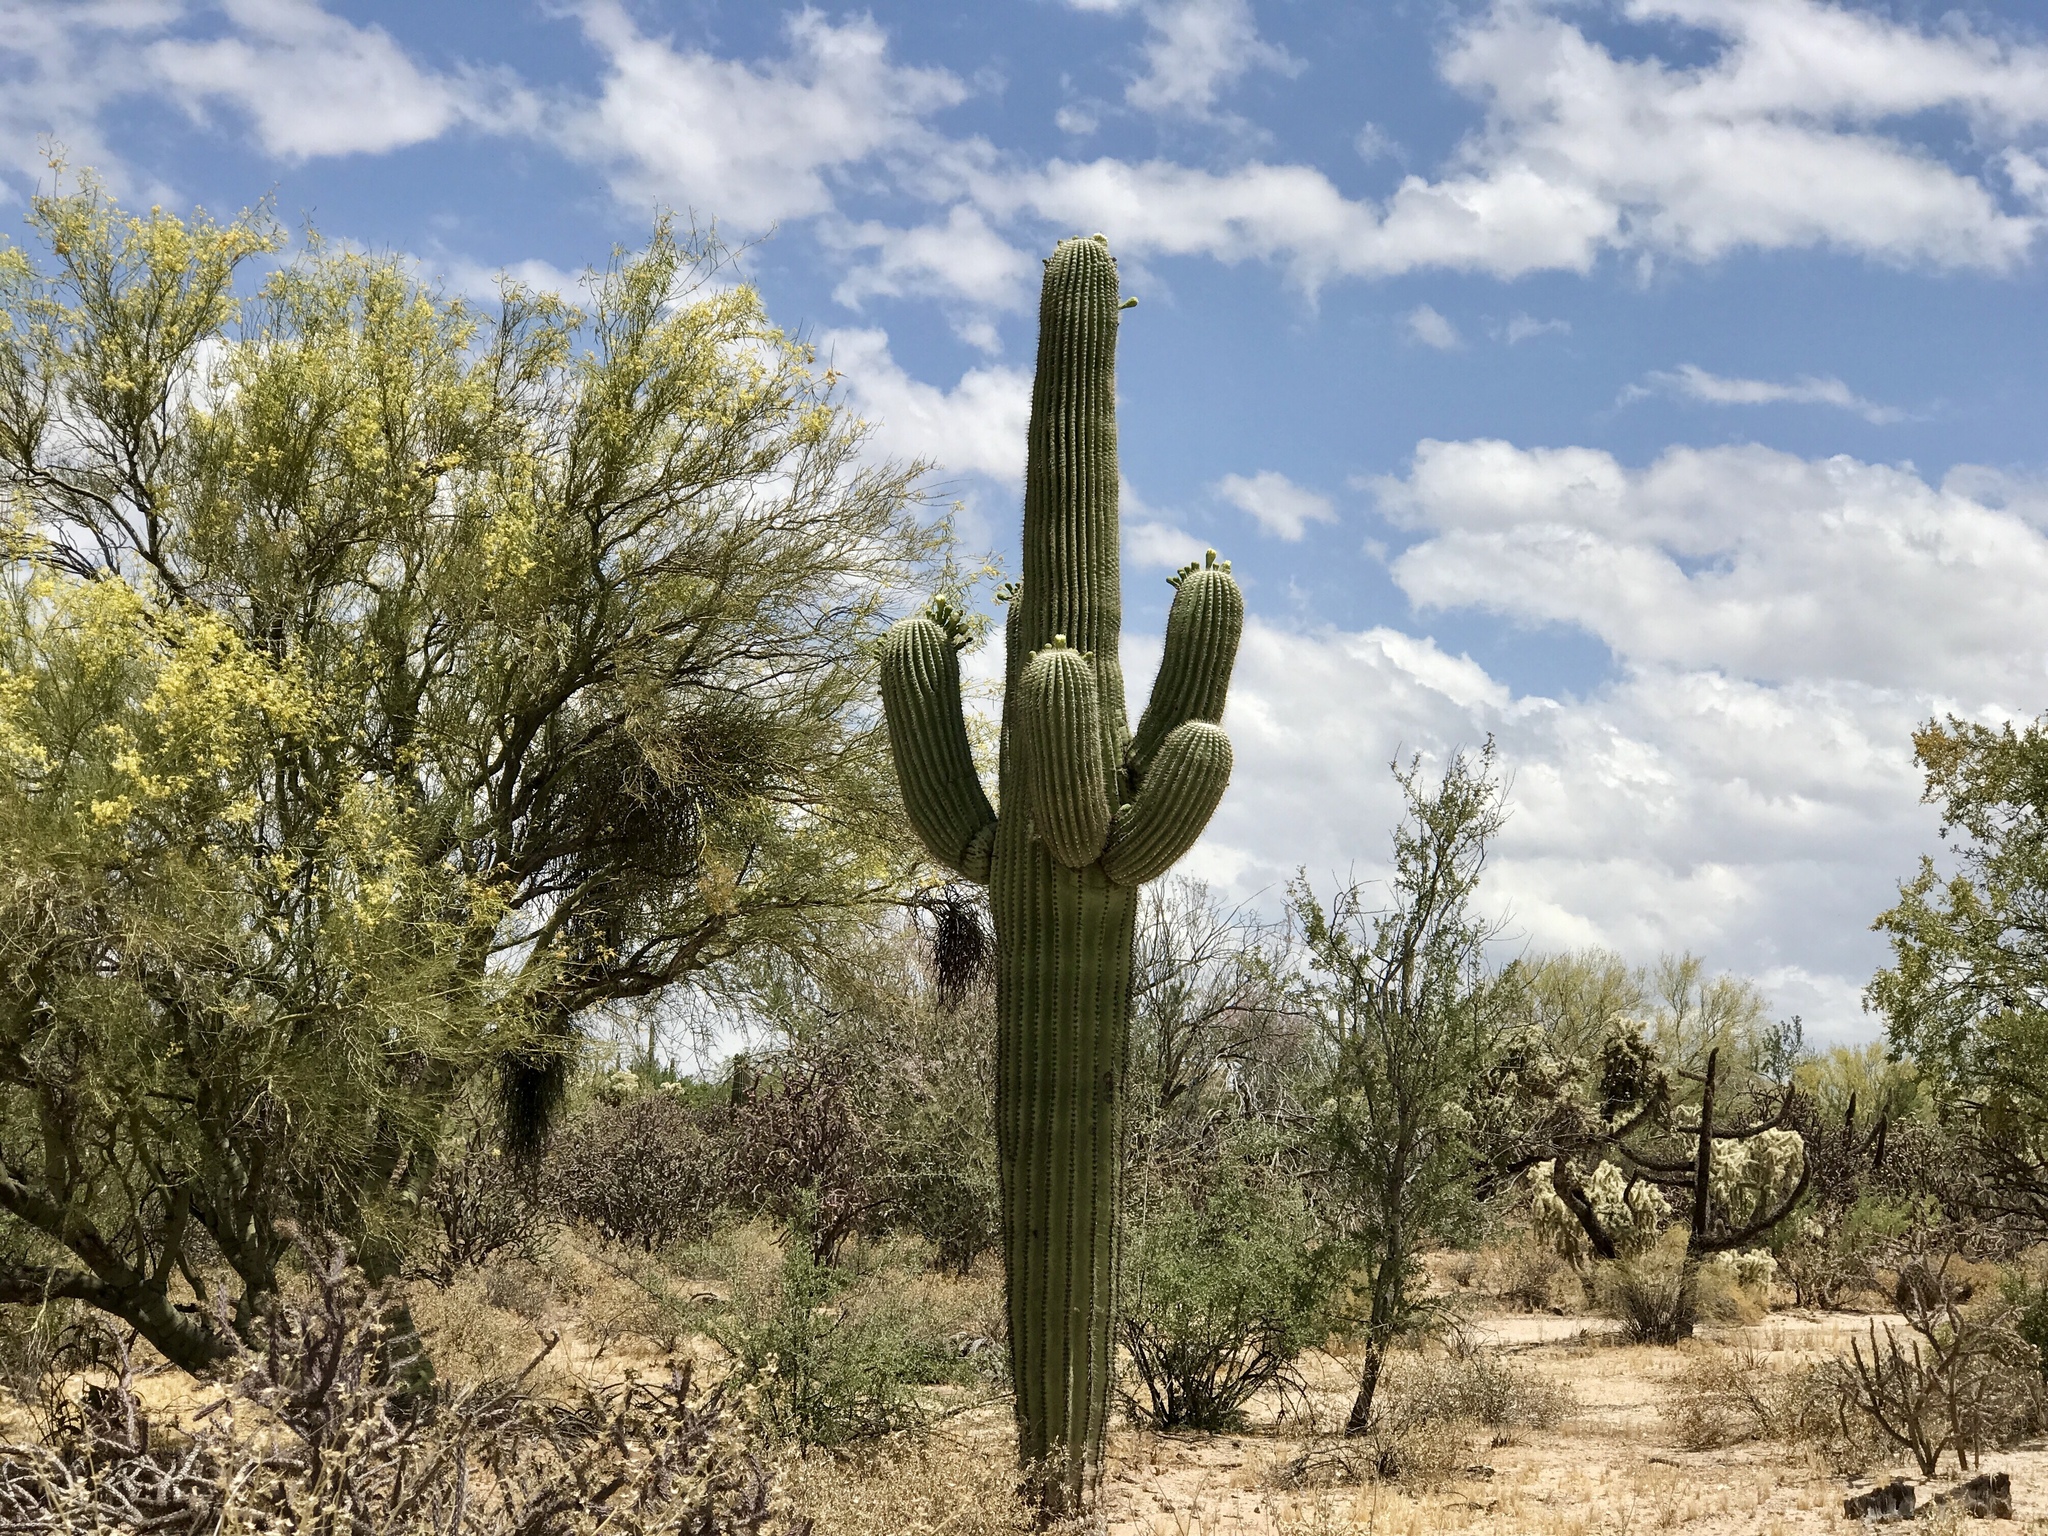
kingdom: Plantae
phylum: Tracheophyta
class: Magnoliopsida
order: Caryophyllales
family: Cactaceae
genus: Carnegiea
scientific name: Carnegiea gigantea
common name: Saguaro
